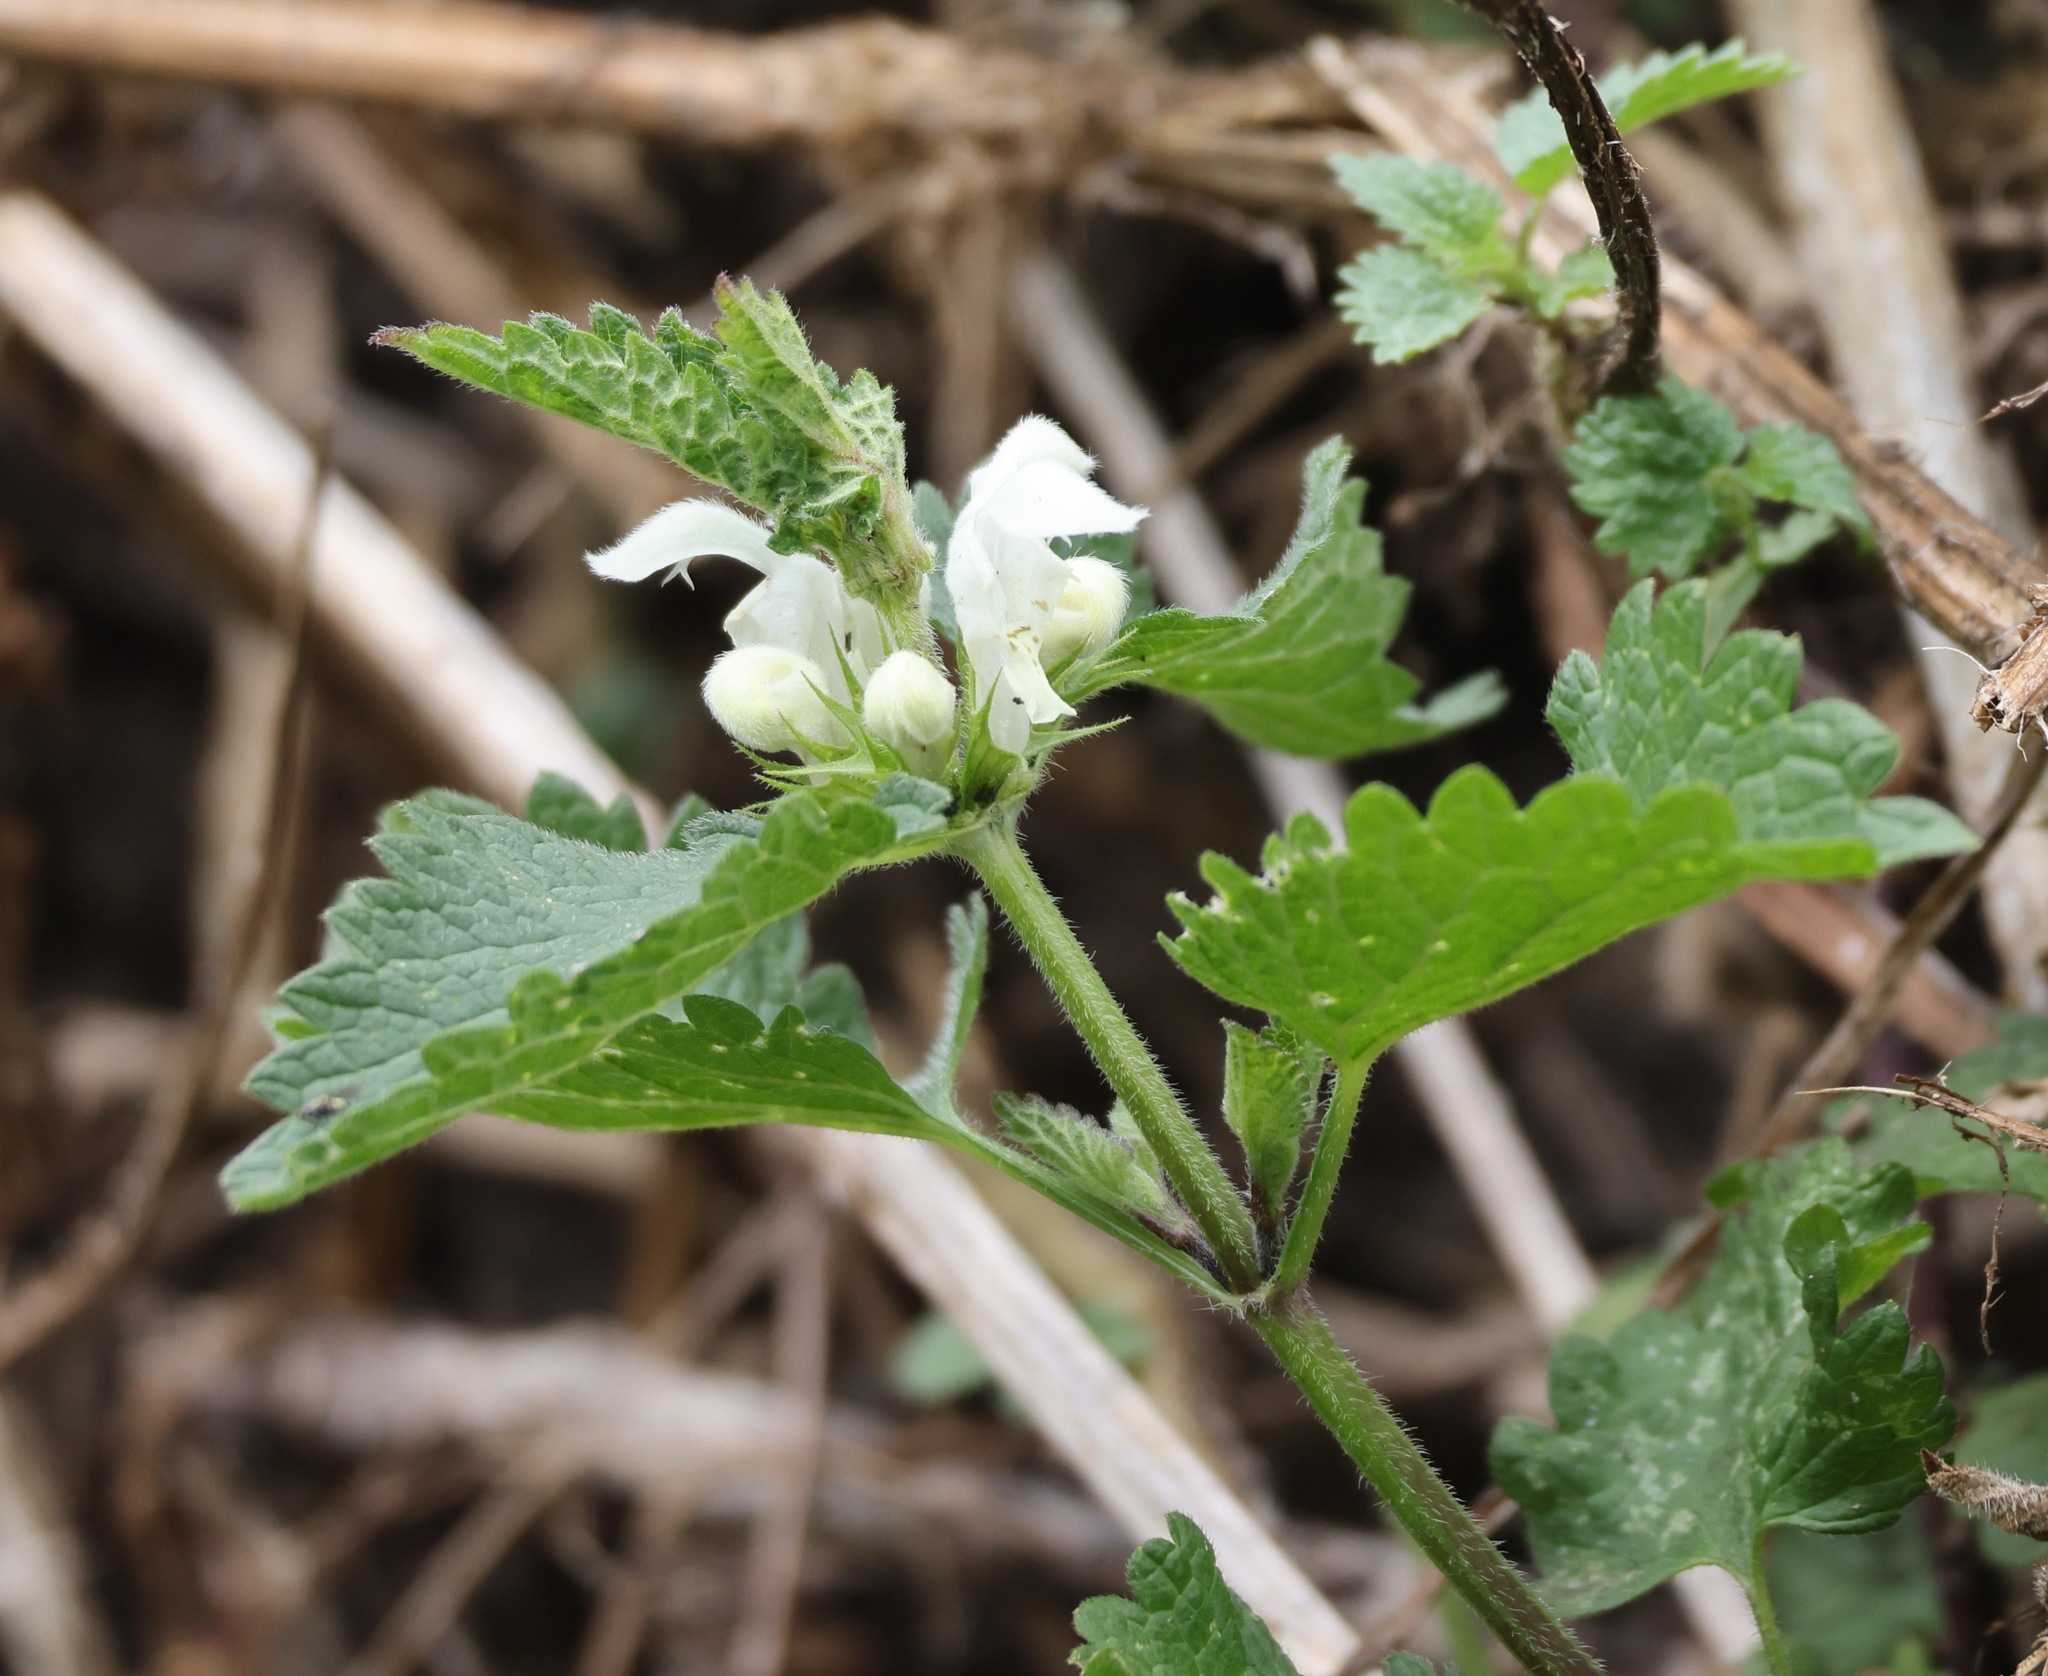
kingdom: Plantae
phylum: Tracheophyta
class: Magnoliopsida
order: Lamiales
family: Lamiaceae
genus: Lamium
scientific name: Lamium album
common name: White dead-nettle
